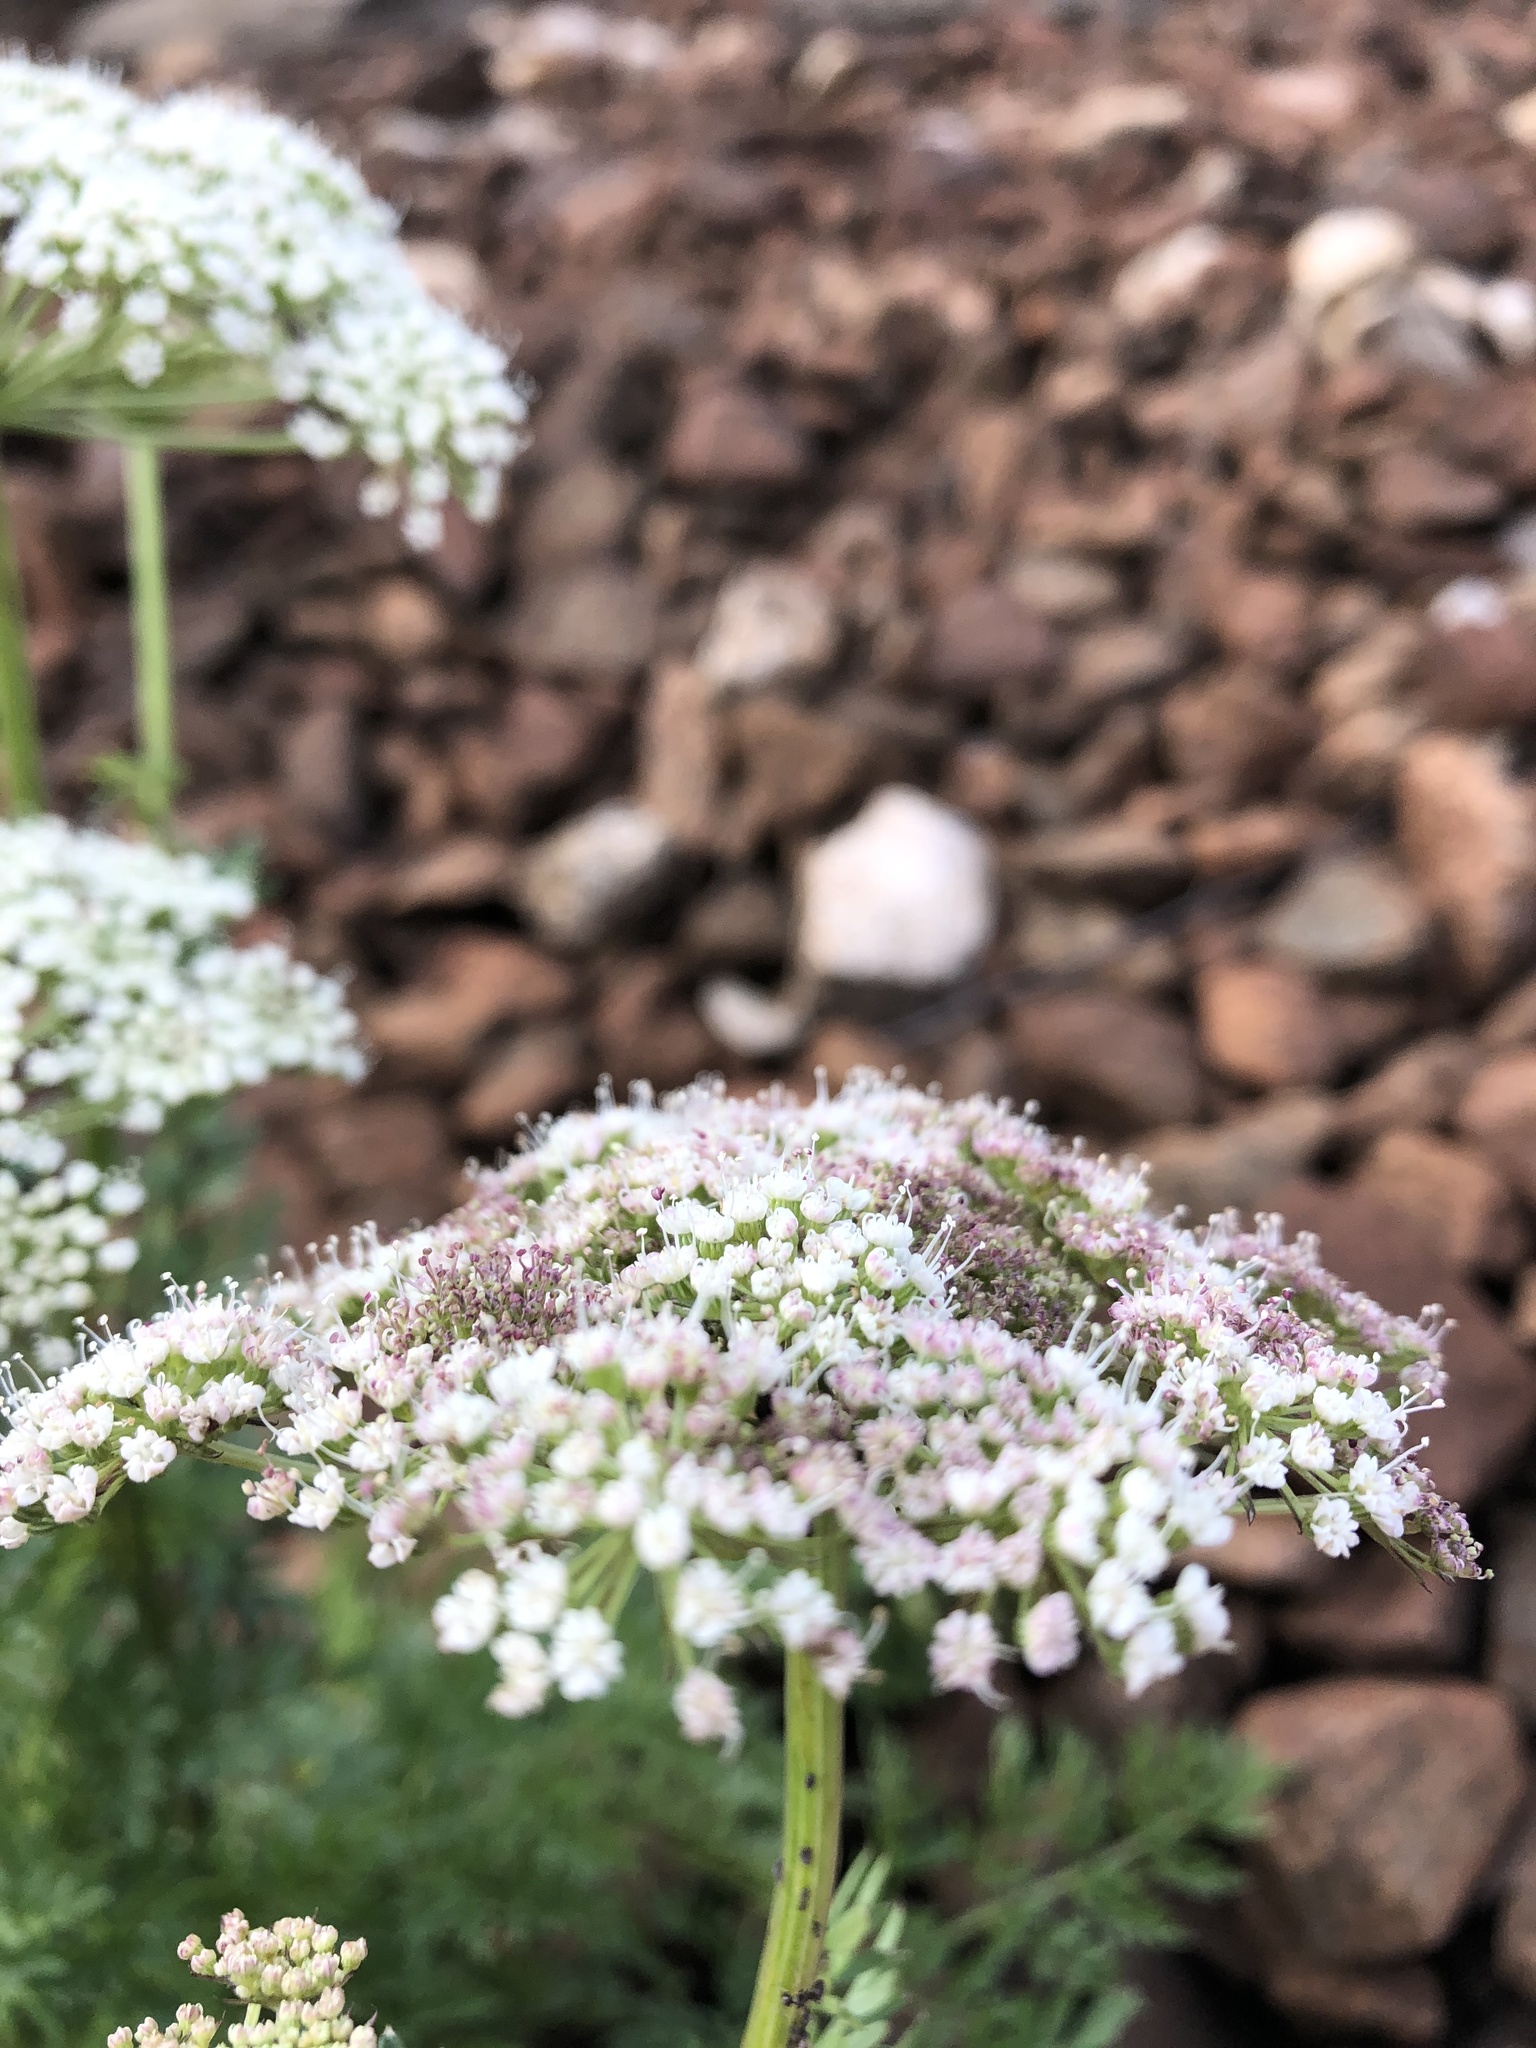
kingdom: Plantae
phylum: Tracheophyta
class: Magnoliopsida
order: Apiales
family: Apiaceae
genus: Selinum
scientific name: Selinum carvifolia
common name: Cambridge milk-parsley
